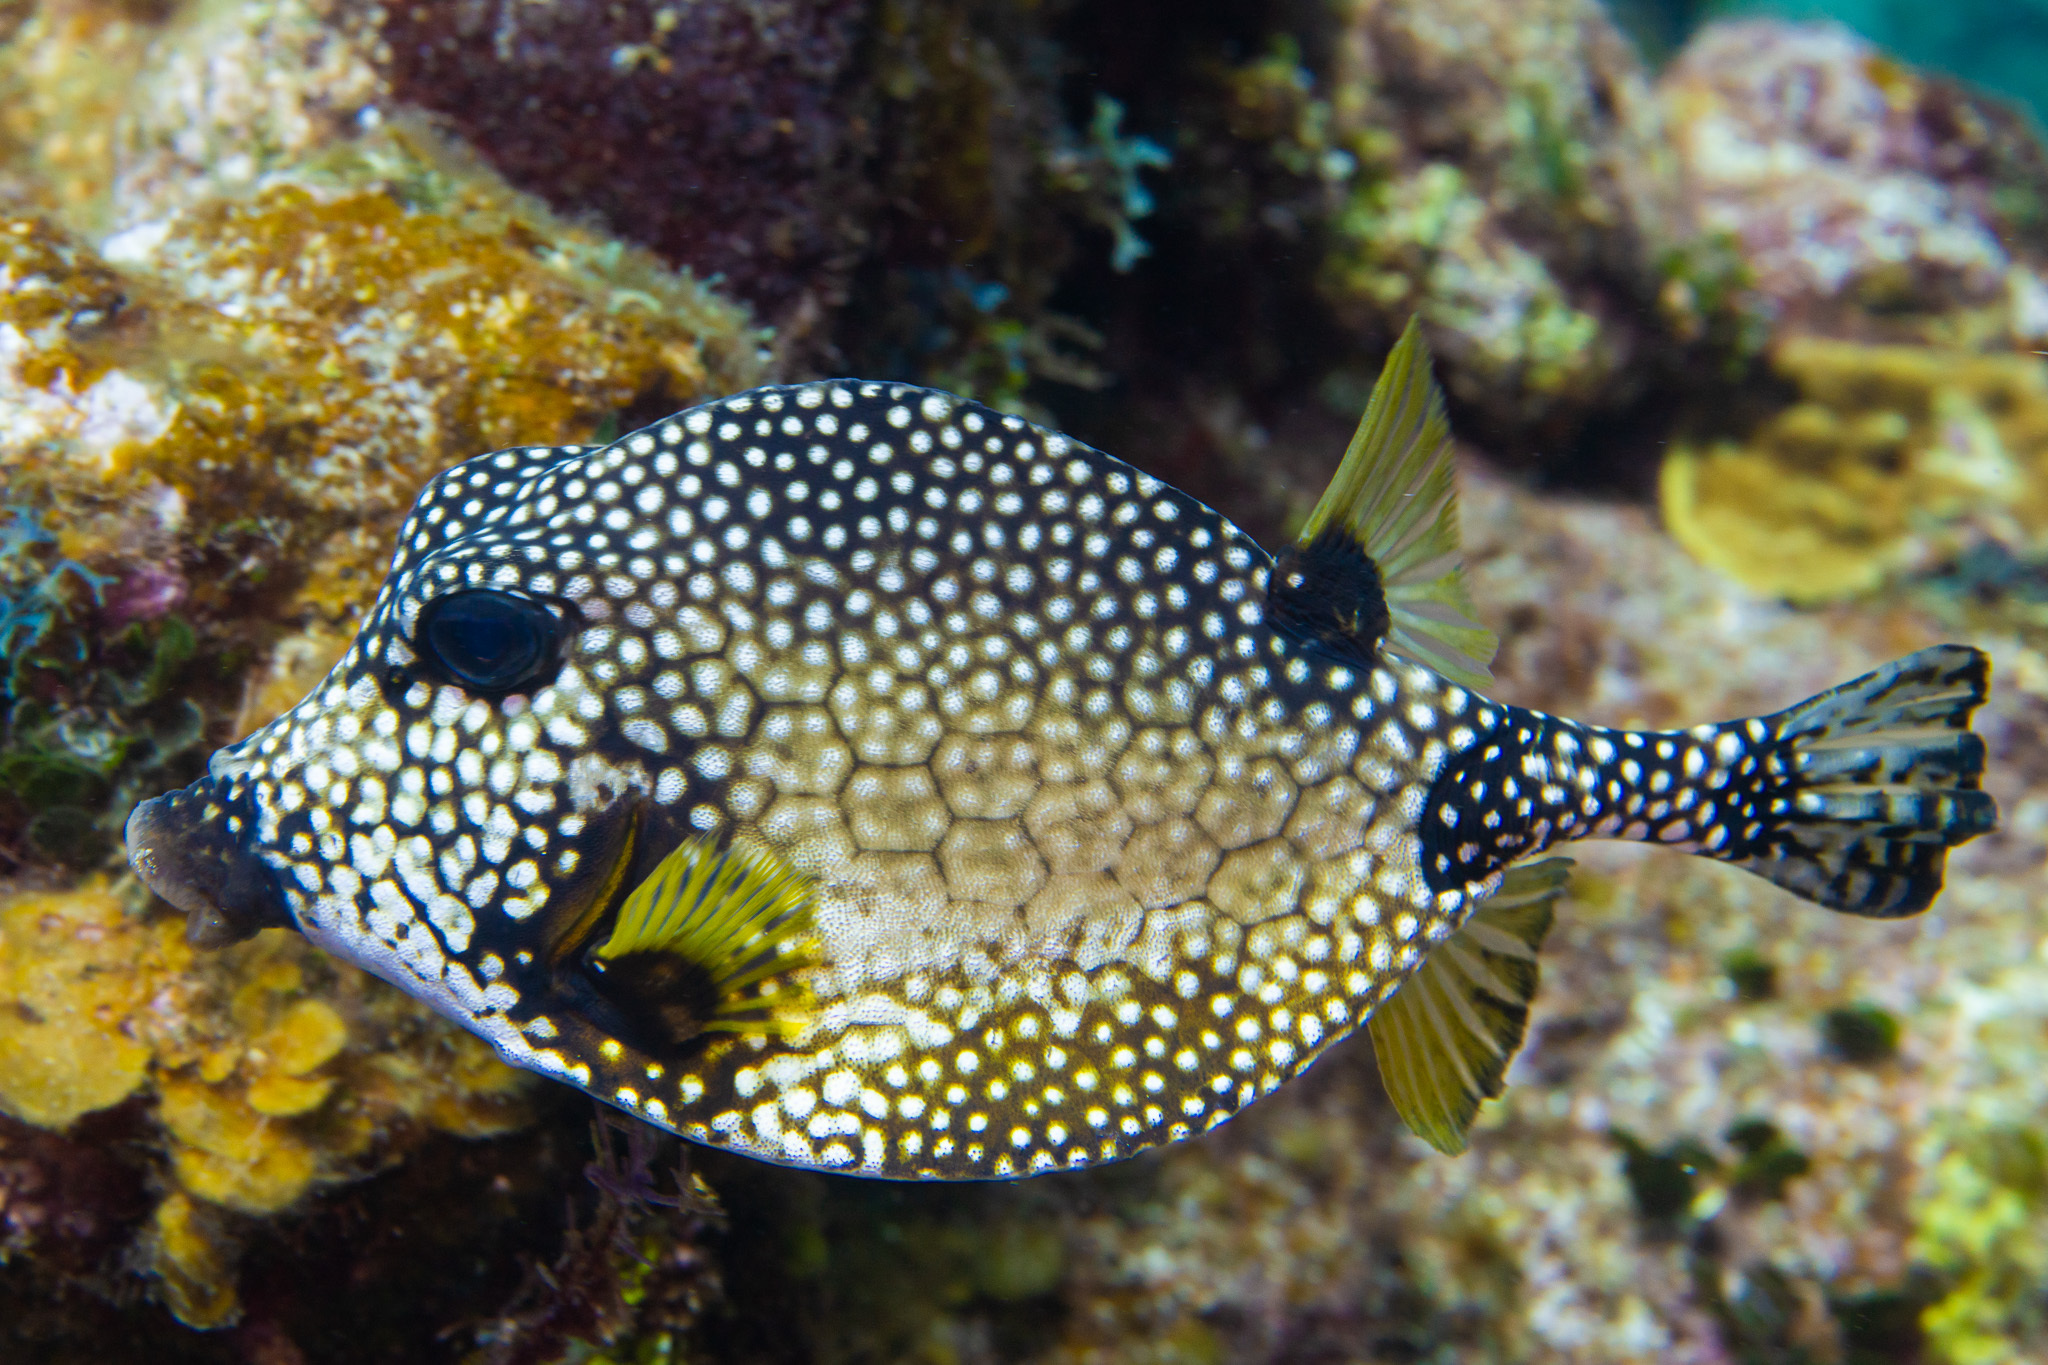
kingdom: Animalia
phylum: Chordata
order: Tetraodontiformes
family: Ostraciidae
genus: Lactophrys
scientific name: Lactophrys triqueter
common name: Smooth trunkfish
